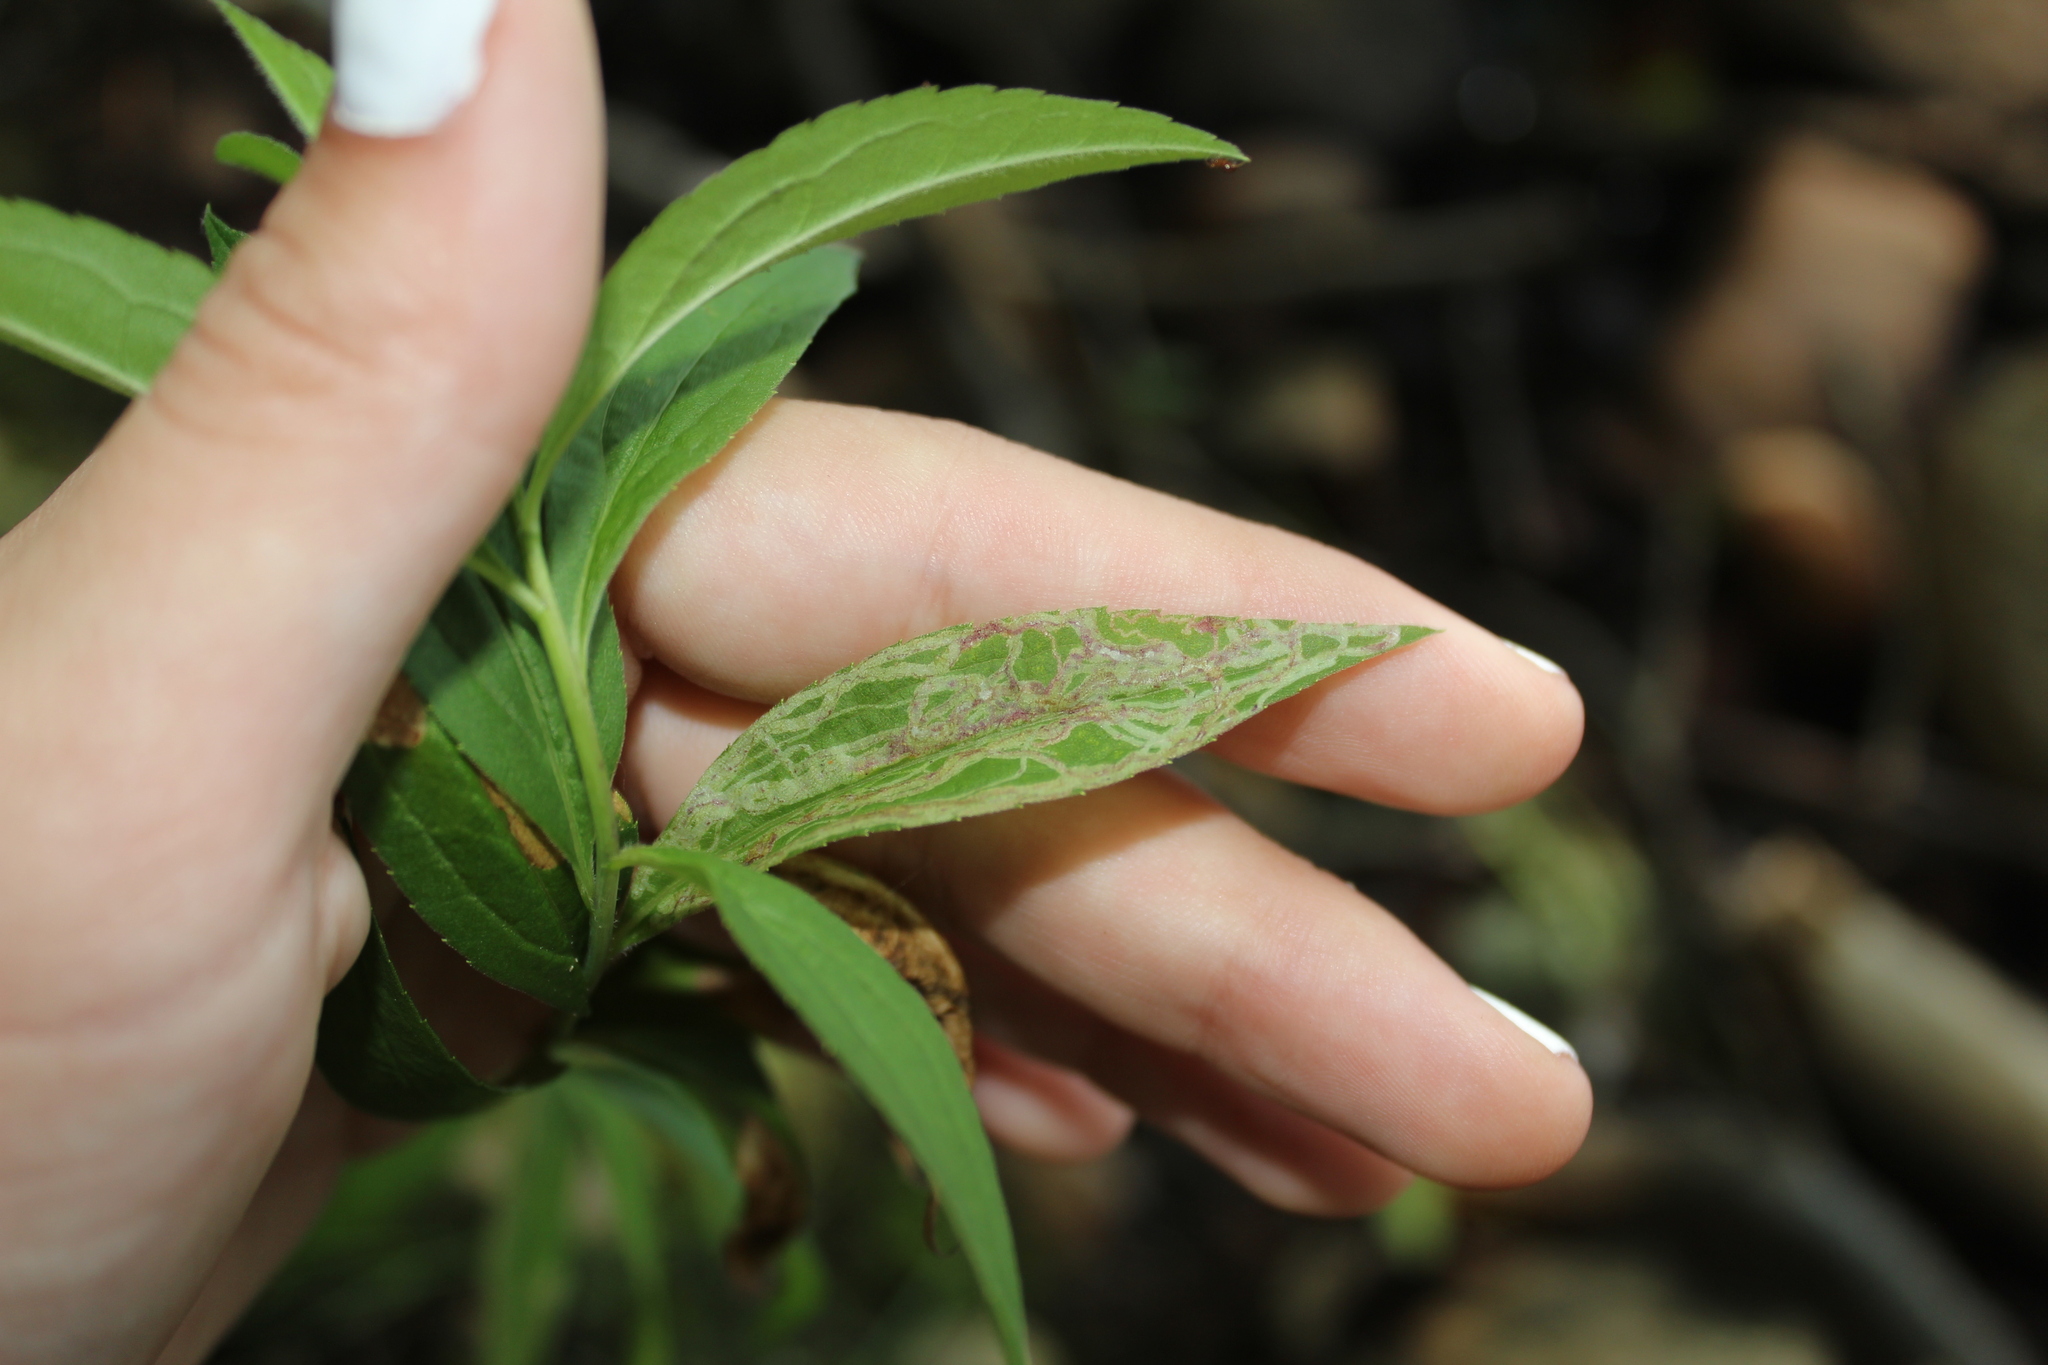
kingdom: Animalia
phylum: Arthropoda
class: Insecta
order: Diptera
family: Agromyzidae
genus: Ophiomyia
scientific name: Ophiomyia maura
